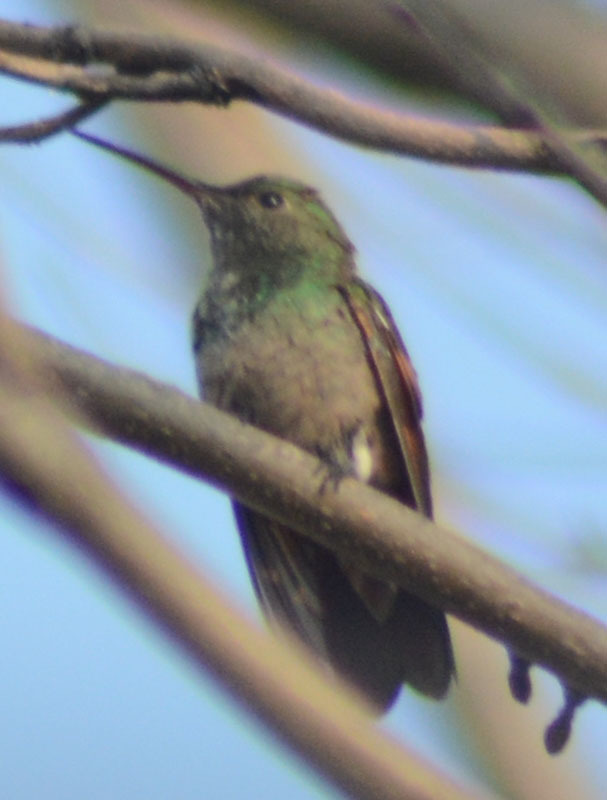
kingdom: Animalia
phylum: Chordata
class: Aves
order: Apodiformes
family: Trochilidae
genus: Saucerottia
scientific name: Saucerottia beryllina
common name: Berylline hummingbird
